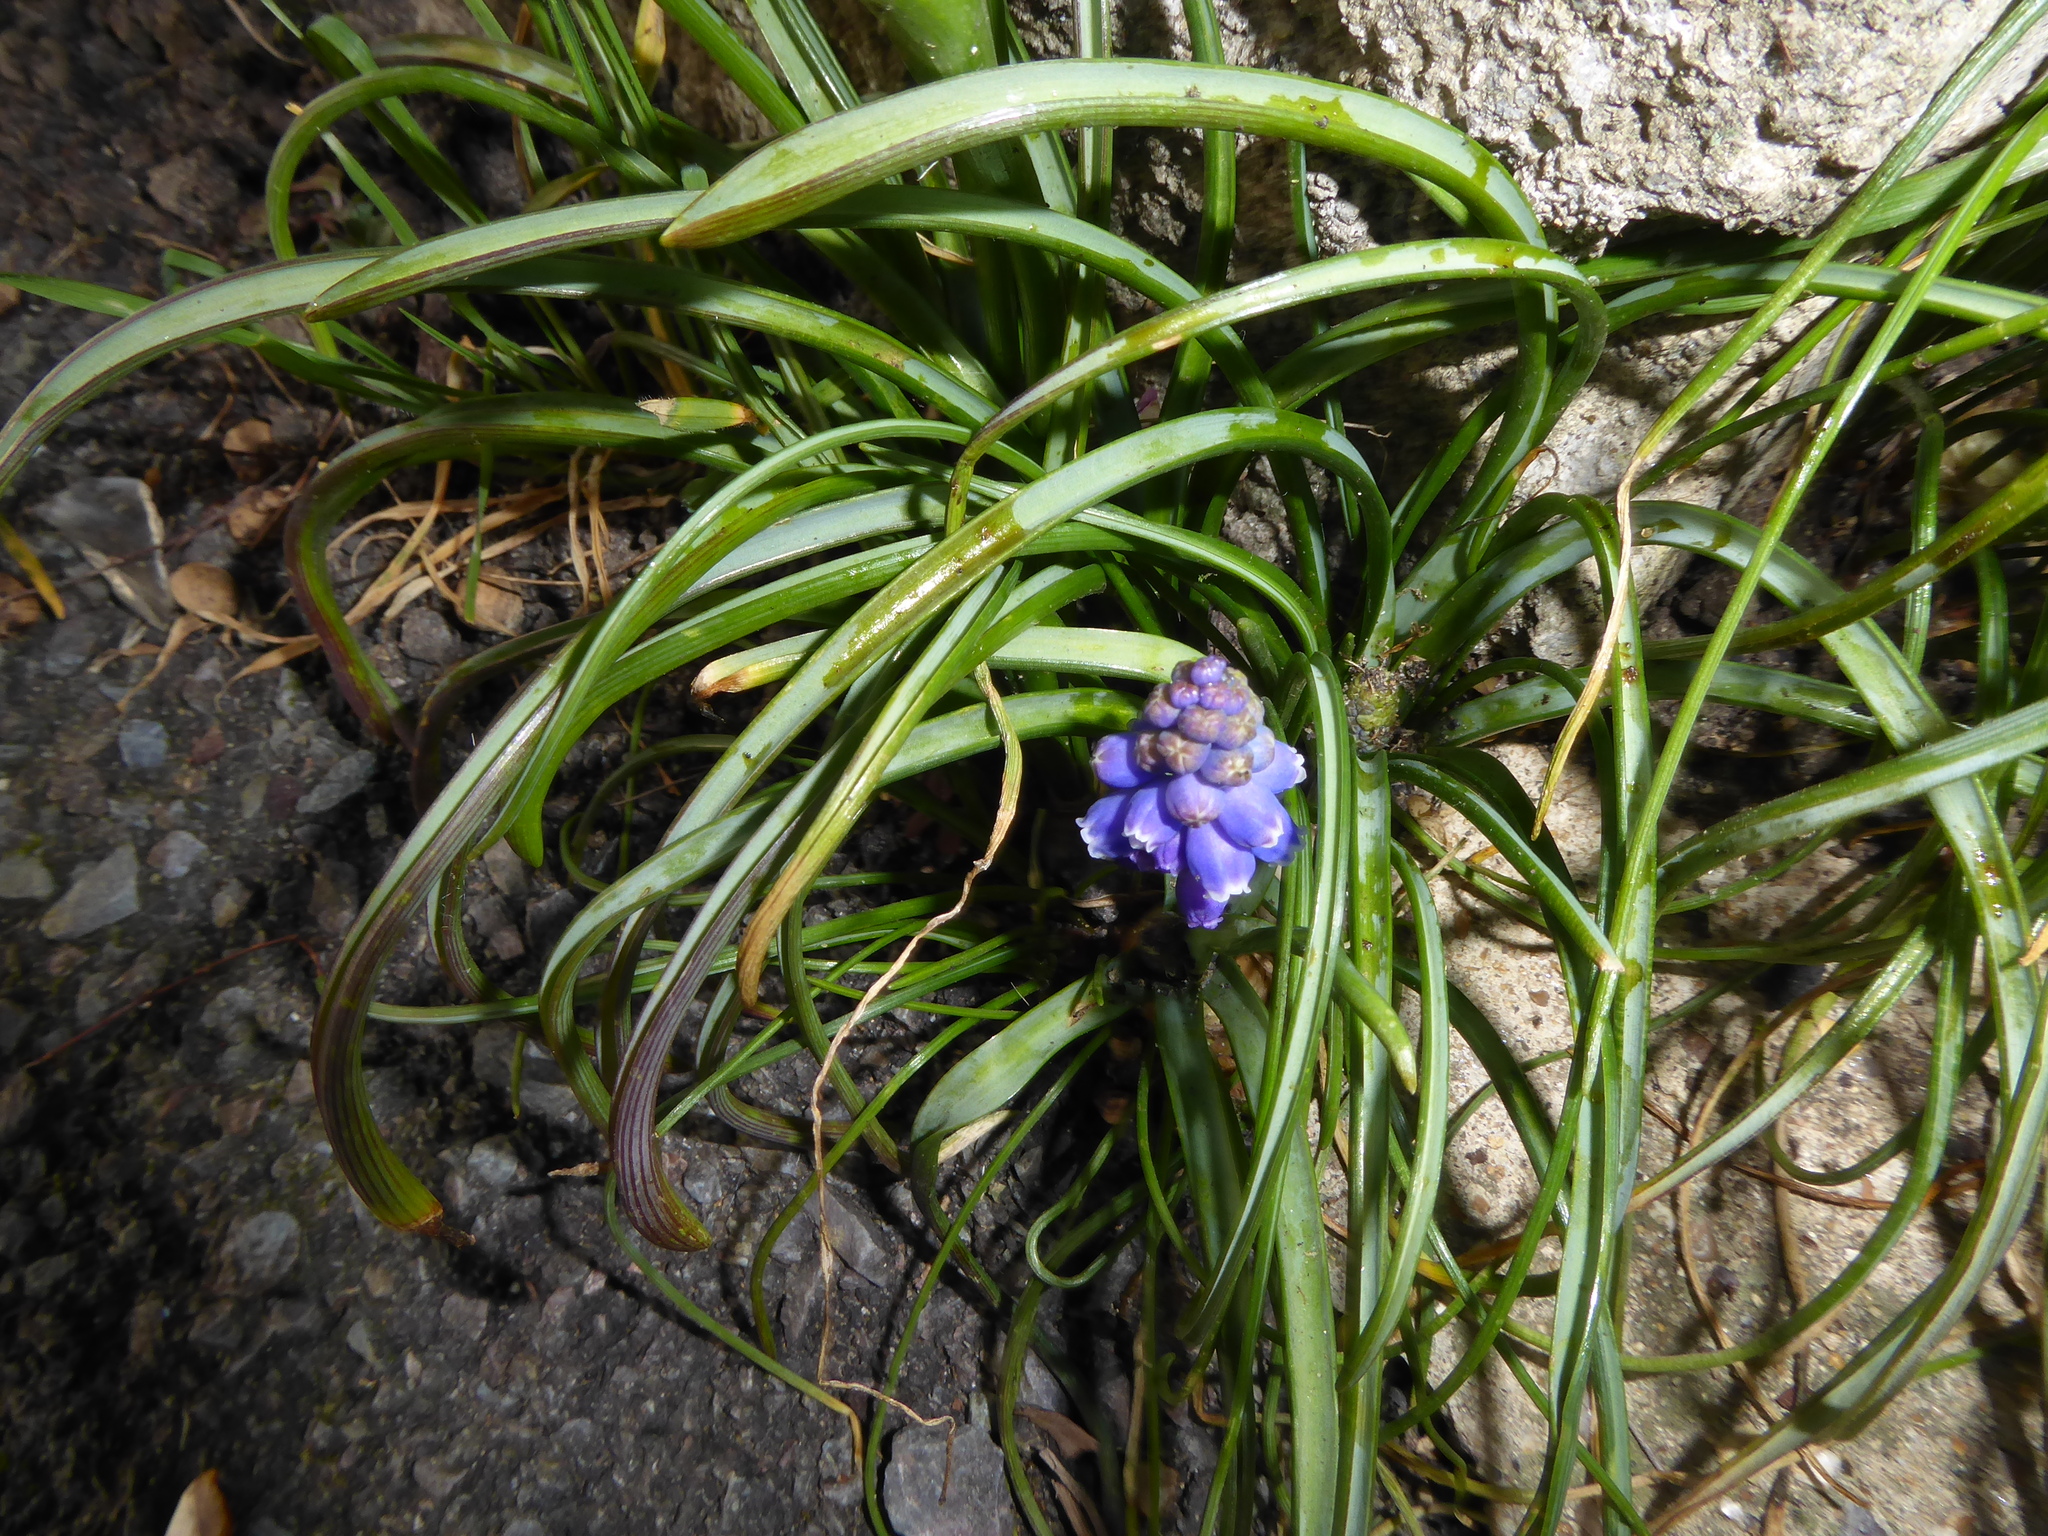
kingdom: Plantae
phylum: Tracheophyta
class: Liliopsida
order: Asparagales
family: Asparagaceae
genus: Muscari
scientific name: Muscari armeniacum
